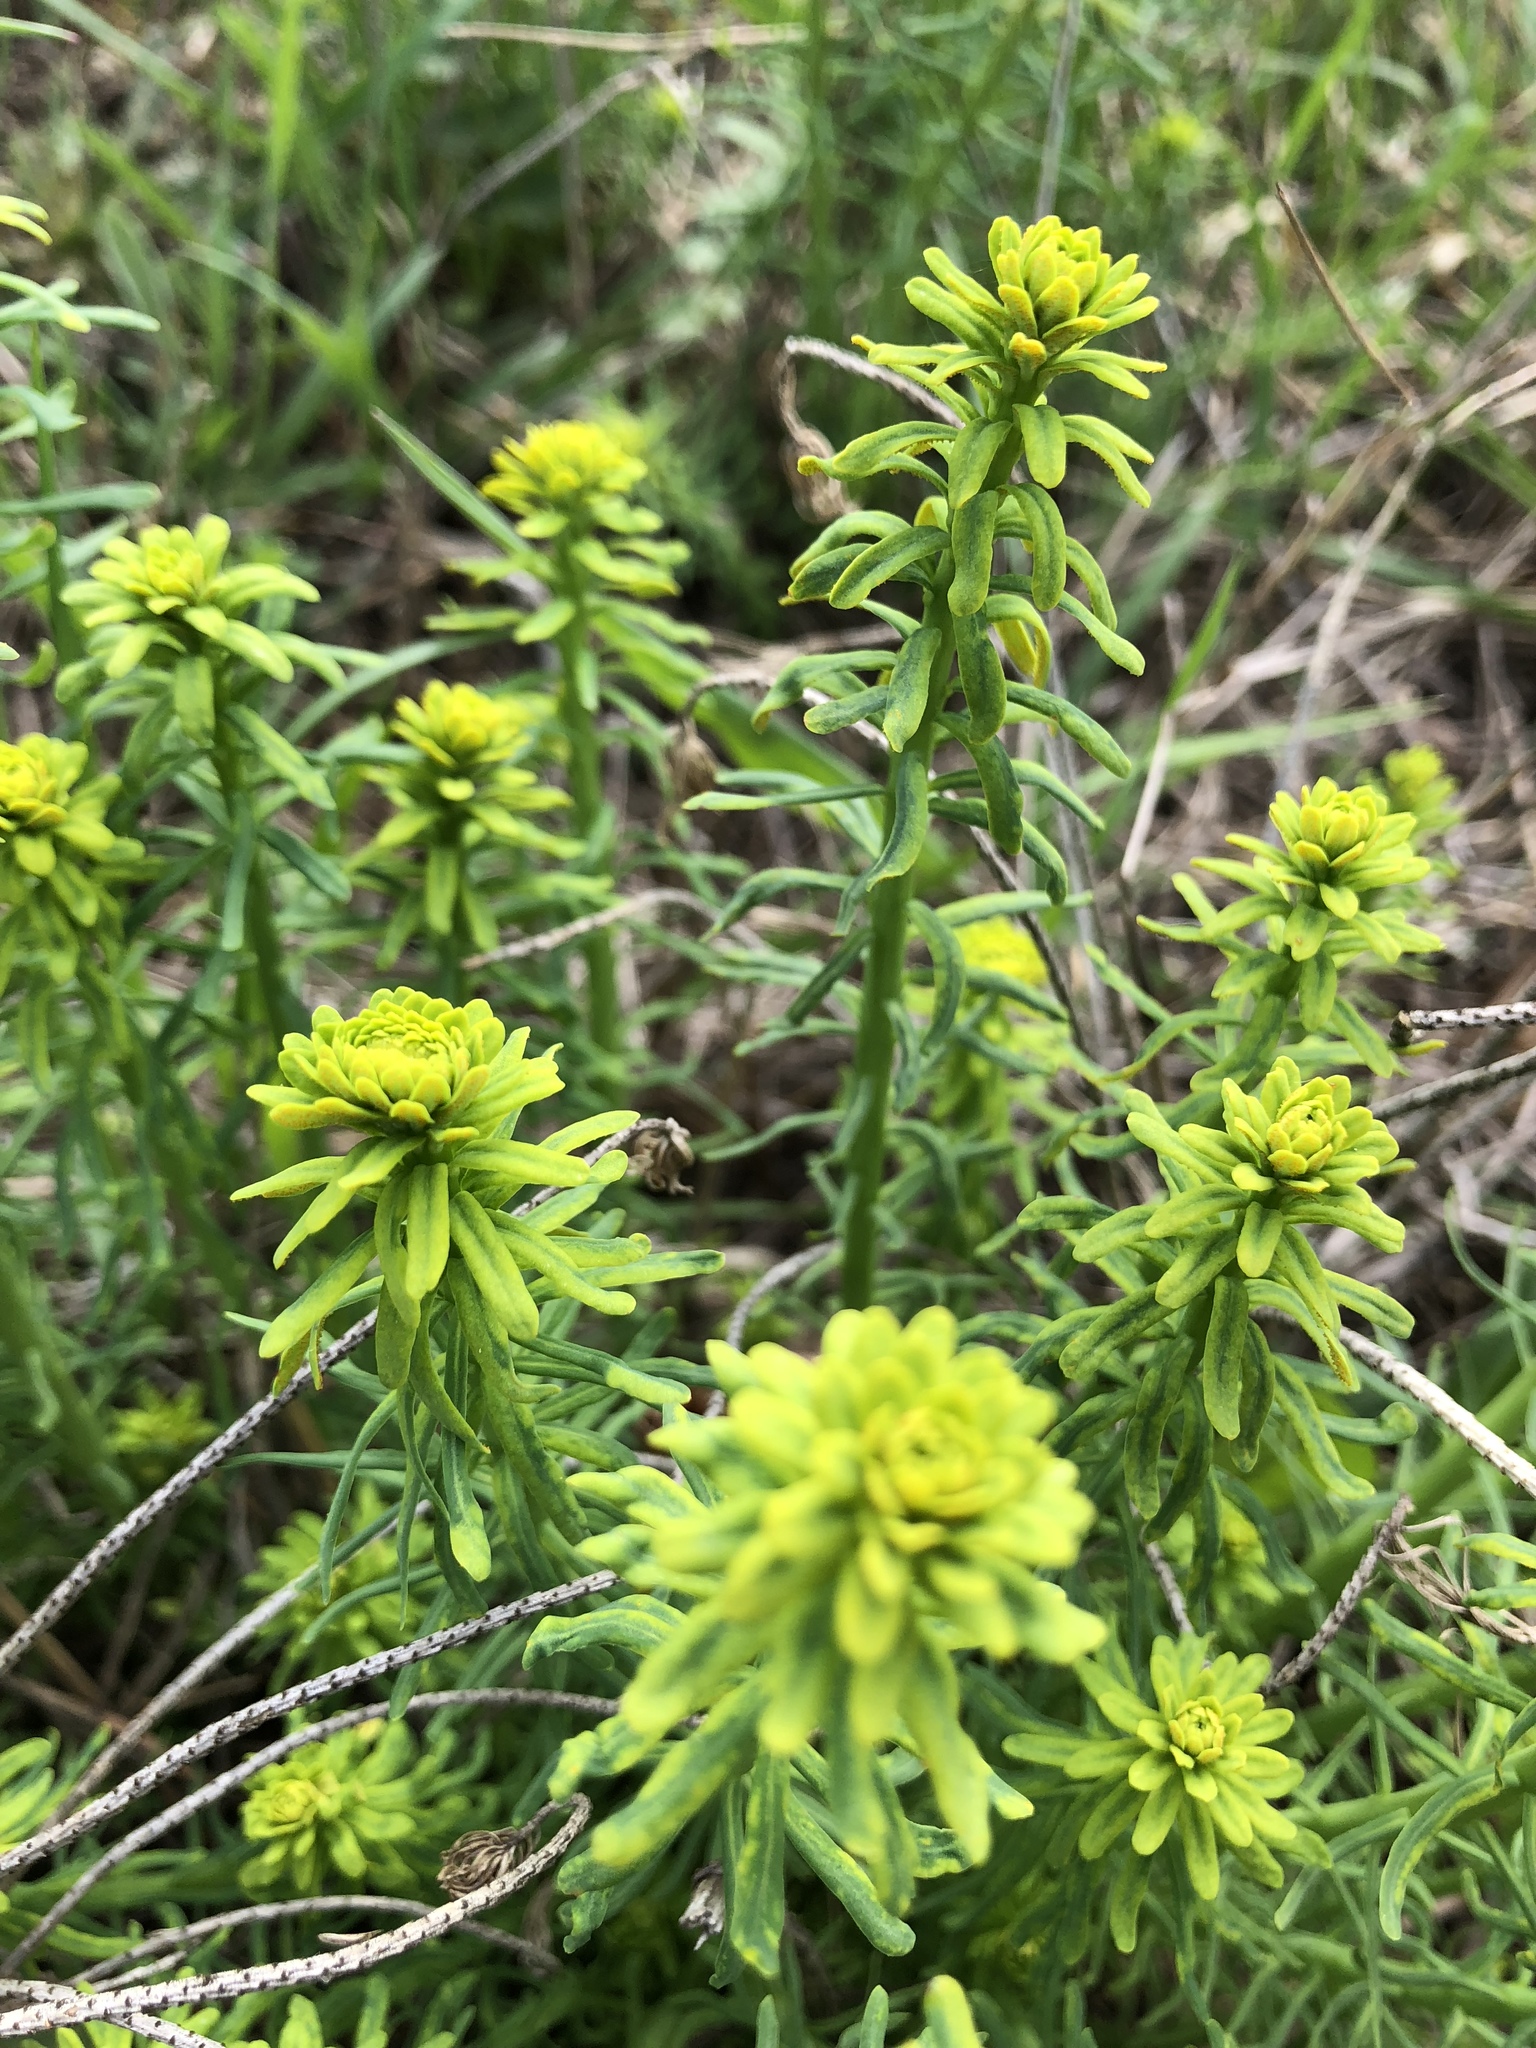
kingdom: Plantae
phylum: Tracheophyta
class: Magnoliopsida
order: Malpighiales
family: Euphorbiaceae
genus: Euphorbia
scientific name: Euphorbia cyparissias
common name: Cypress spurge
